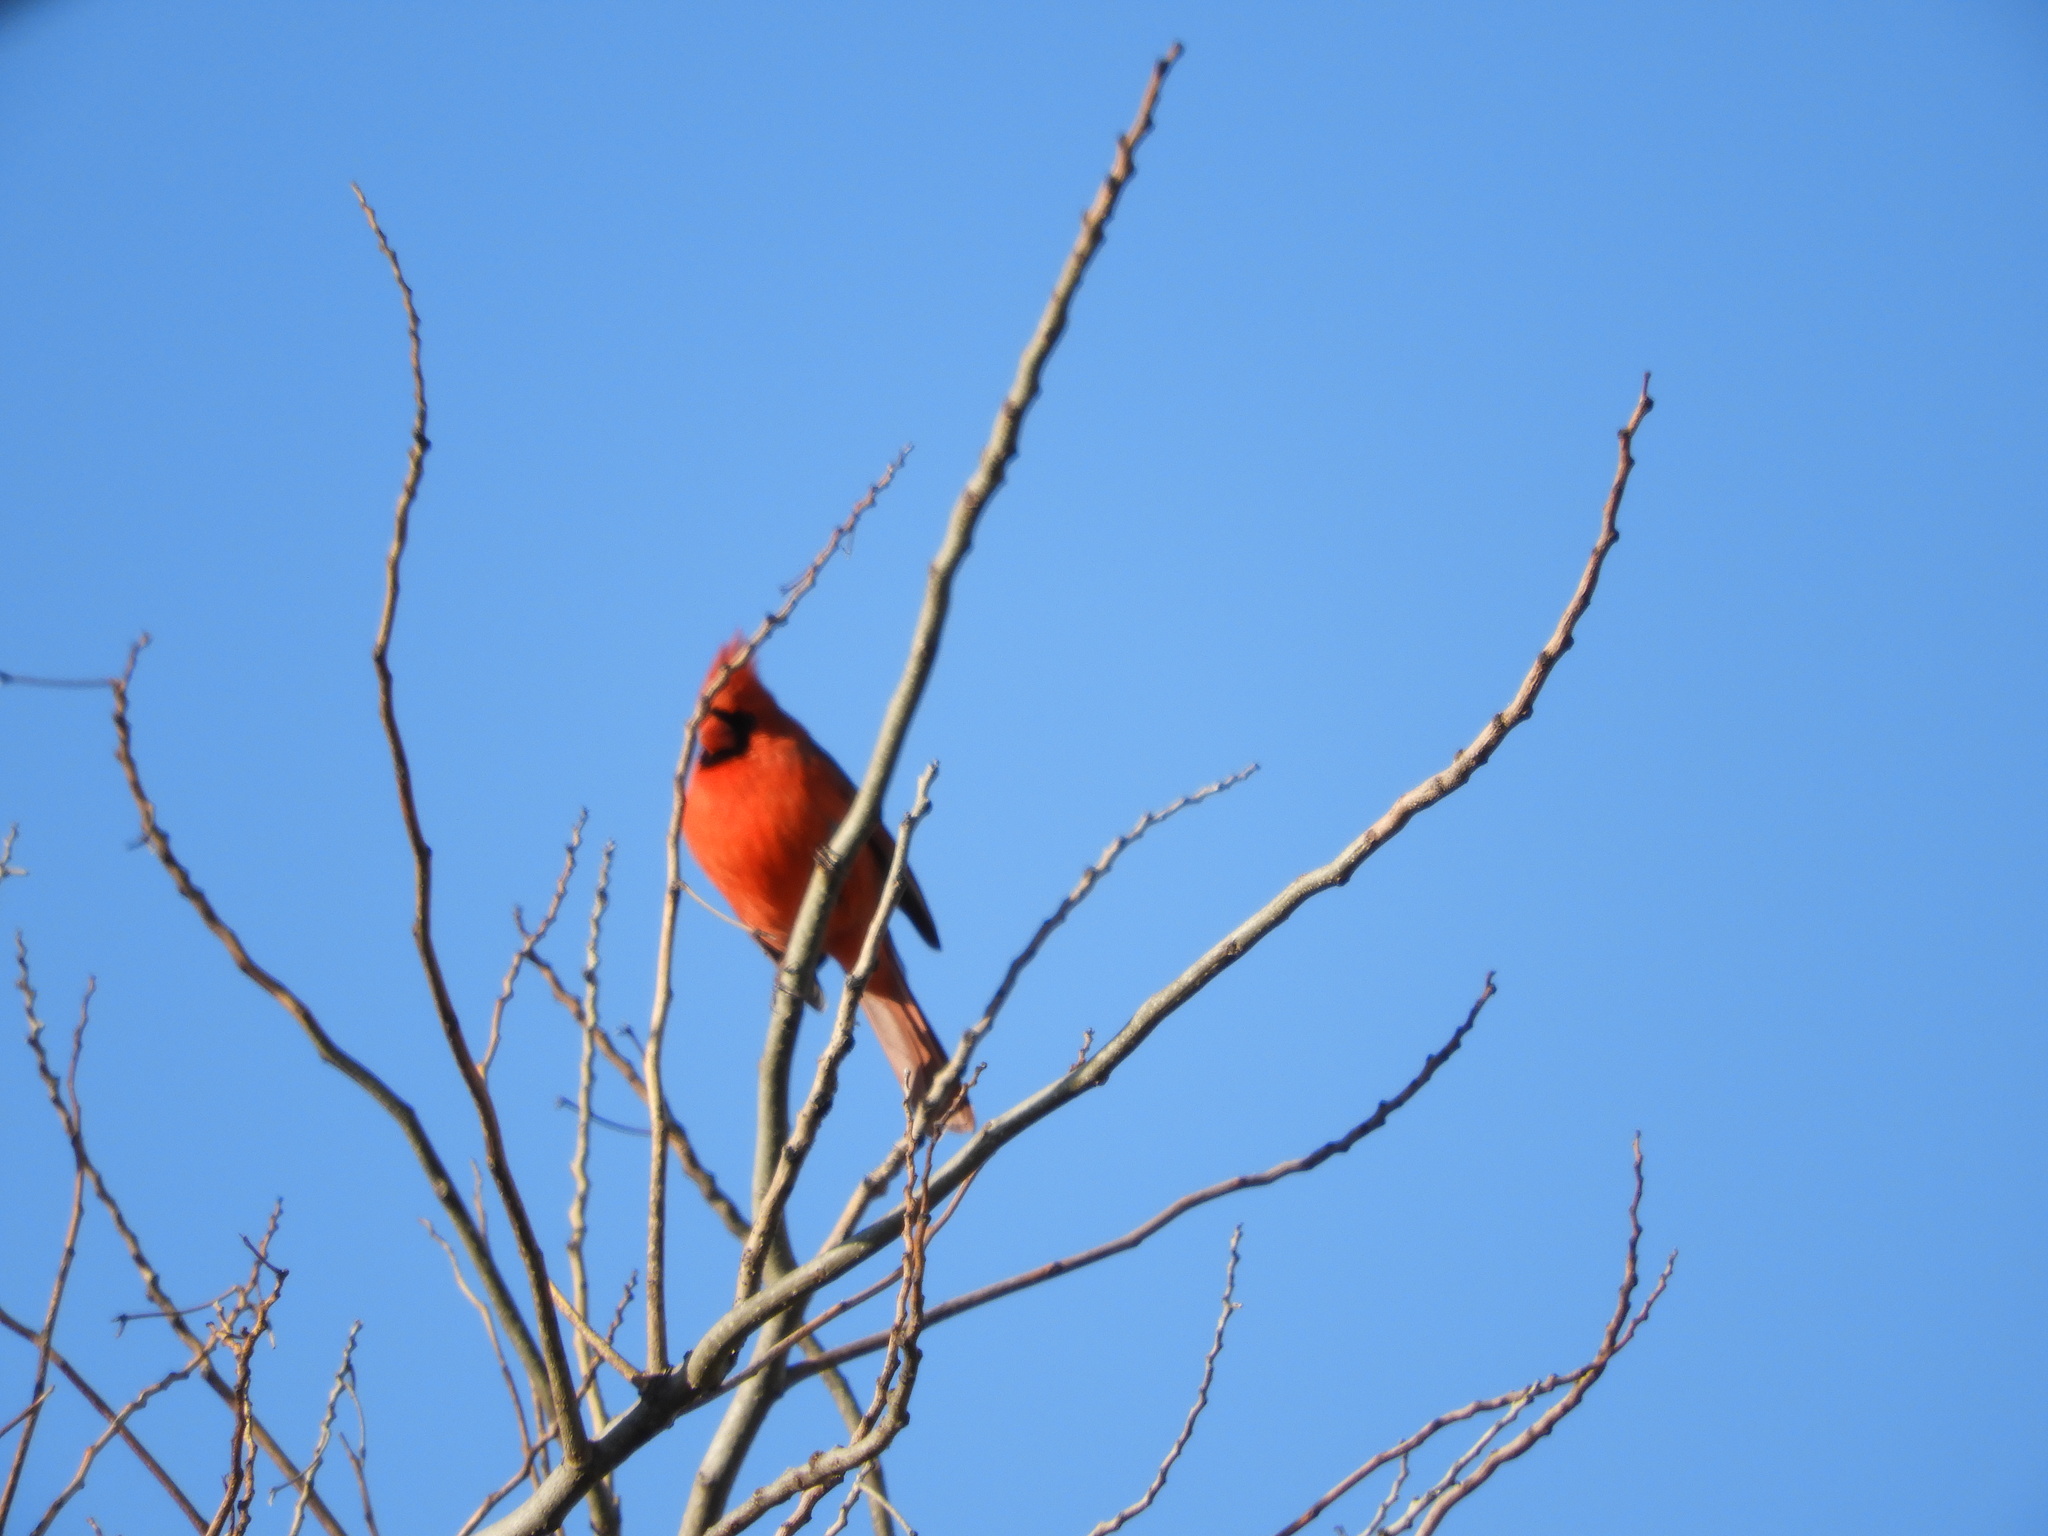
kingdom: Animalia
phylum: Chordata
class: Aves
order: Passeriformes
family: Cardinalidae
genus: Cardinalis
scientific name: Cardinalis cardinalis
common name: Northern cardinal
